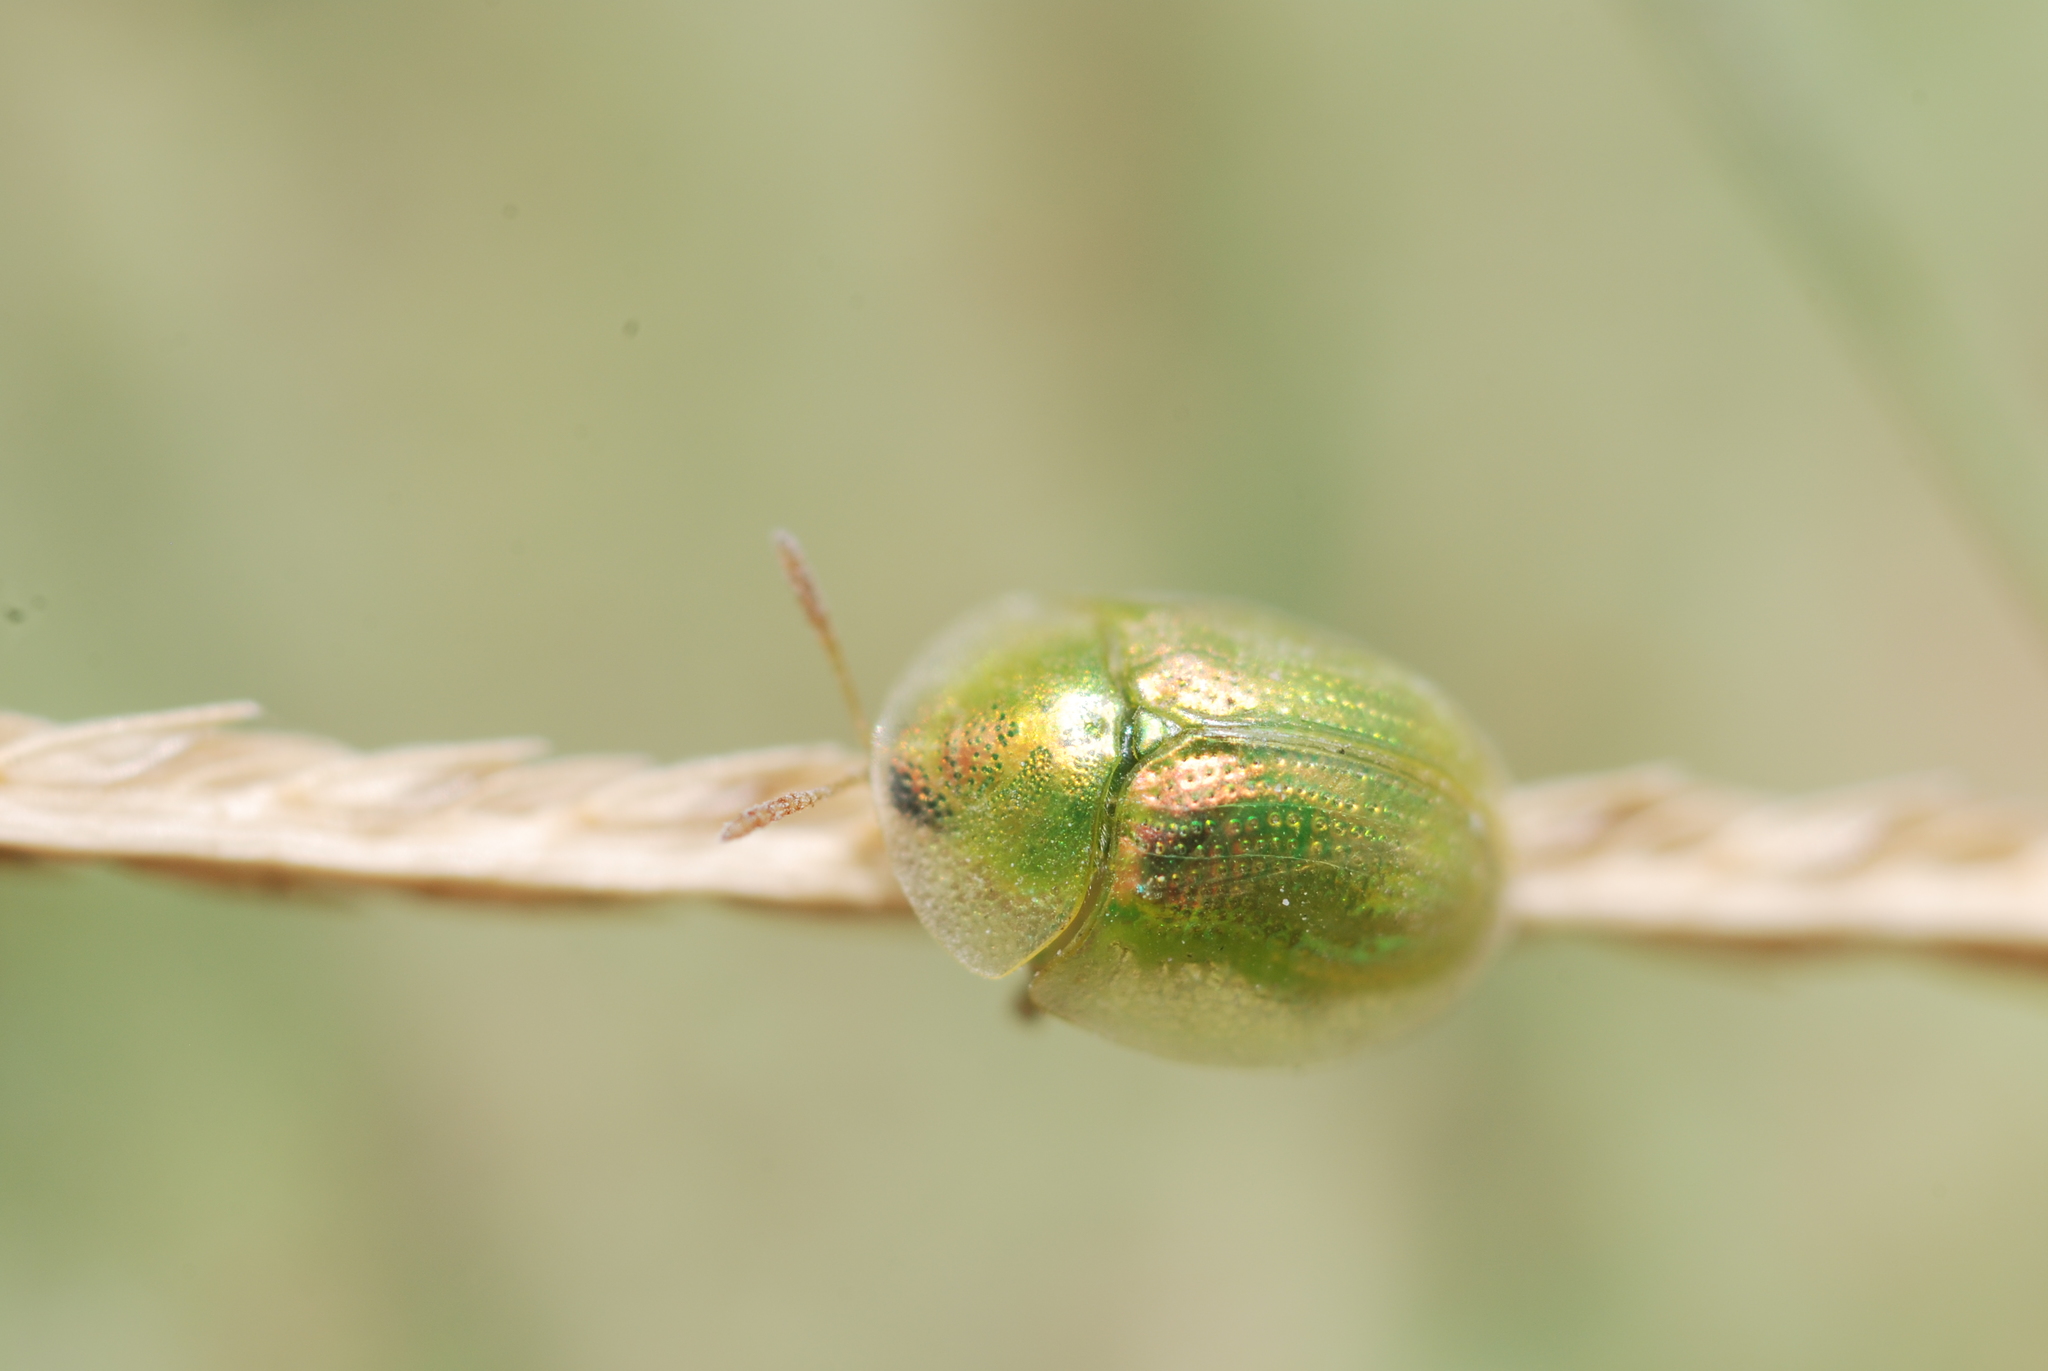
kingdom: Animalia
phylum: Arthropoda
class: Insecta
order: Coleoptera
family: Chrysomelidae
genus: Cassida
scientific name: Cassida margaritacea
